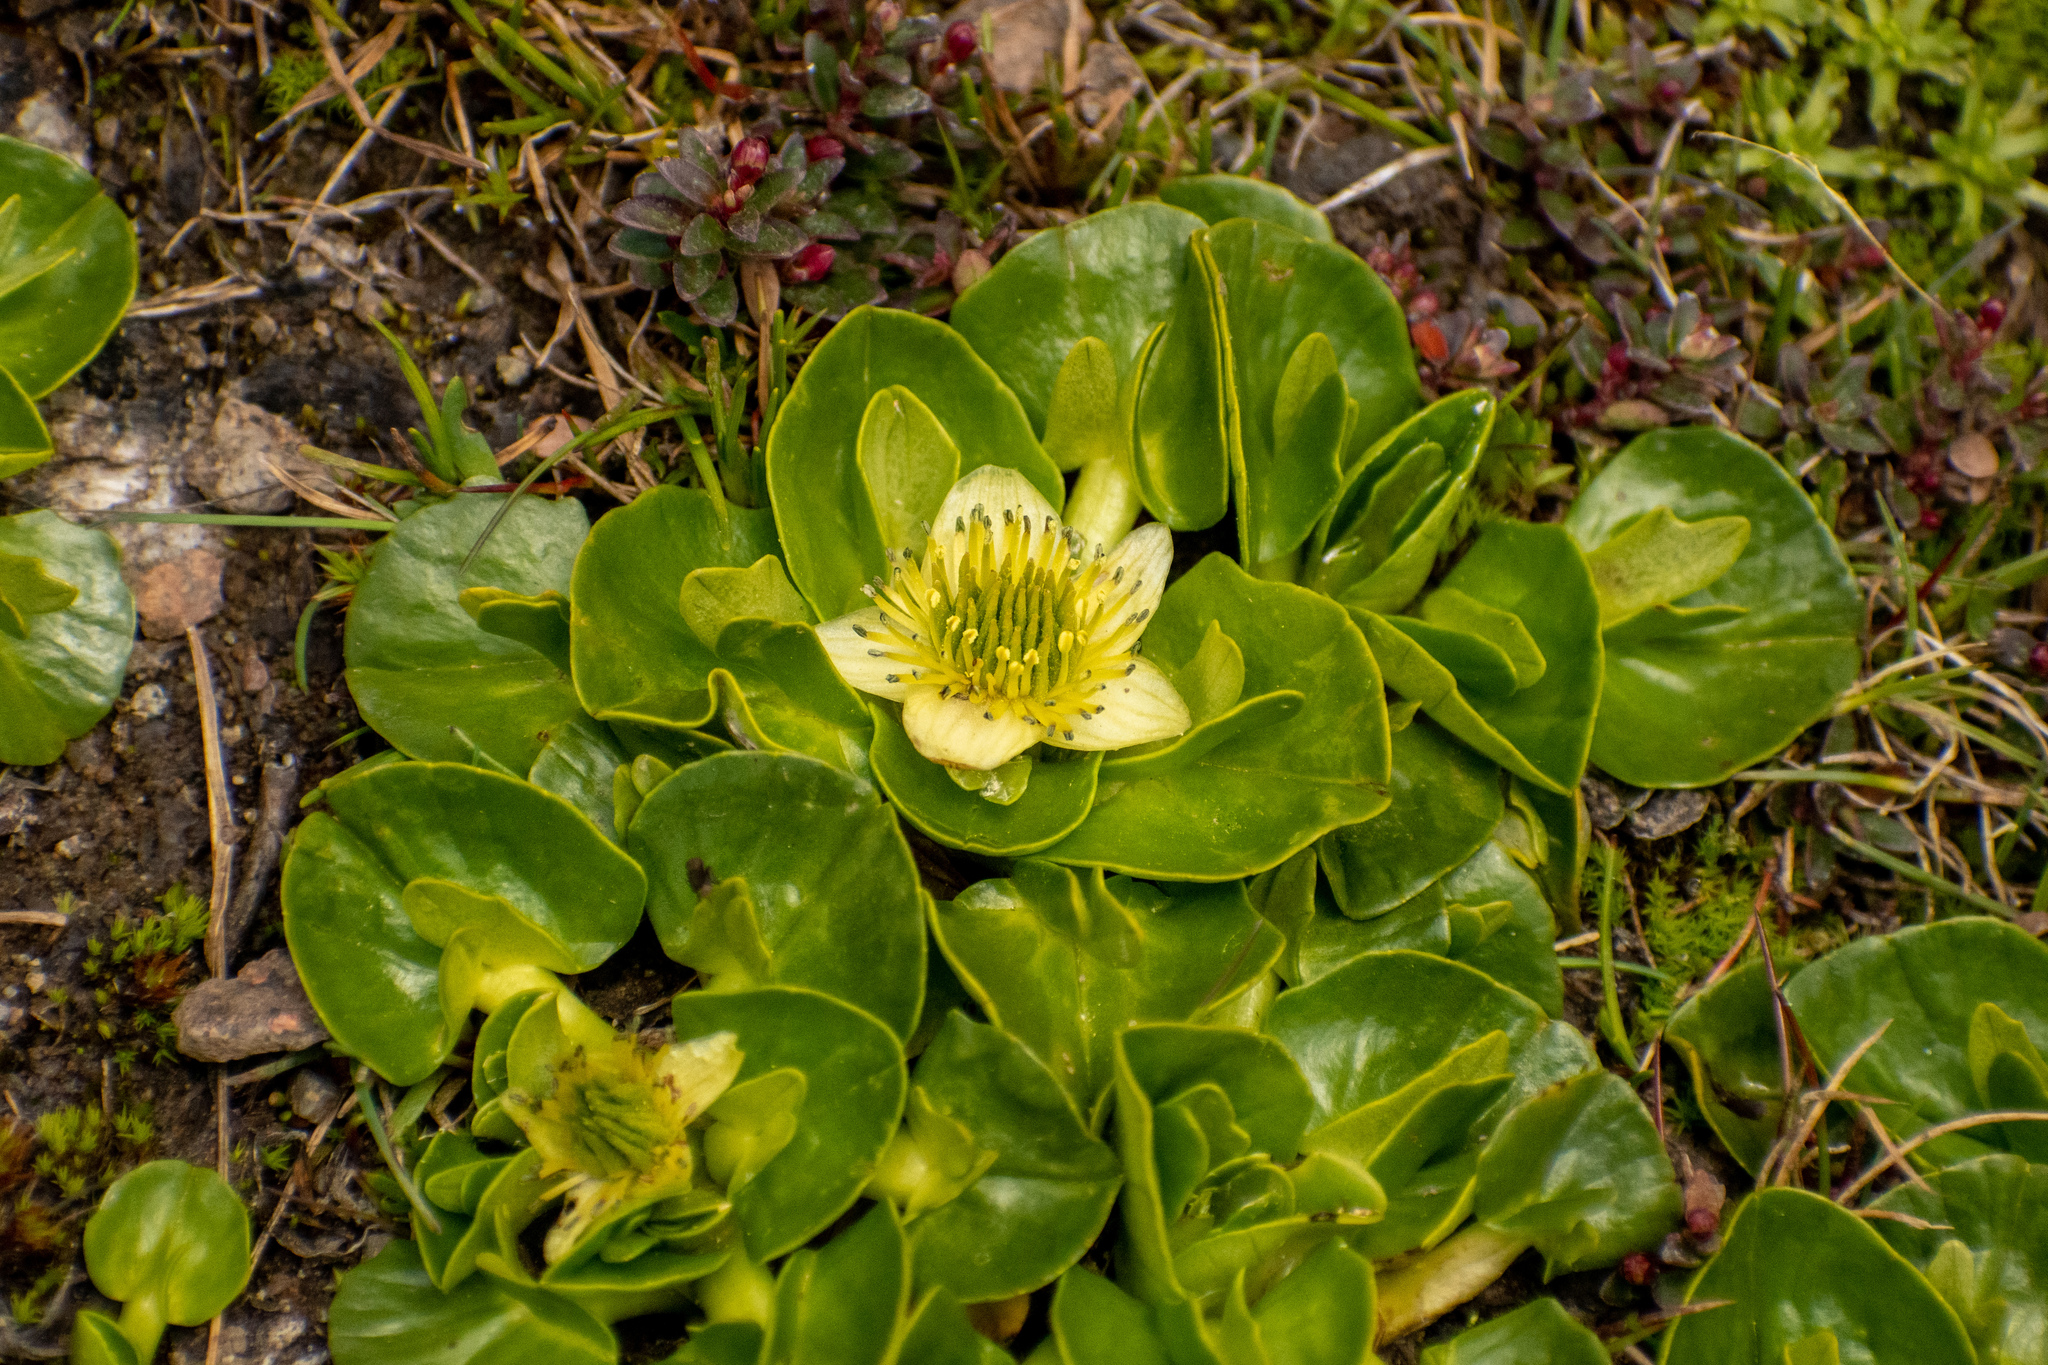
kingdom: Plantae
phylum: Tracheophyta
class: Magnoliopsida
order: Ranunculales
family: Ranunculaceae
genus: Caltha
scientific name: Caltha sagittata
